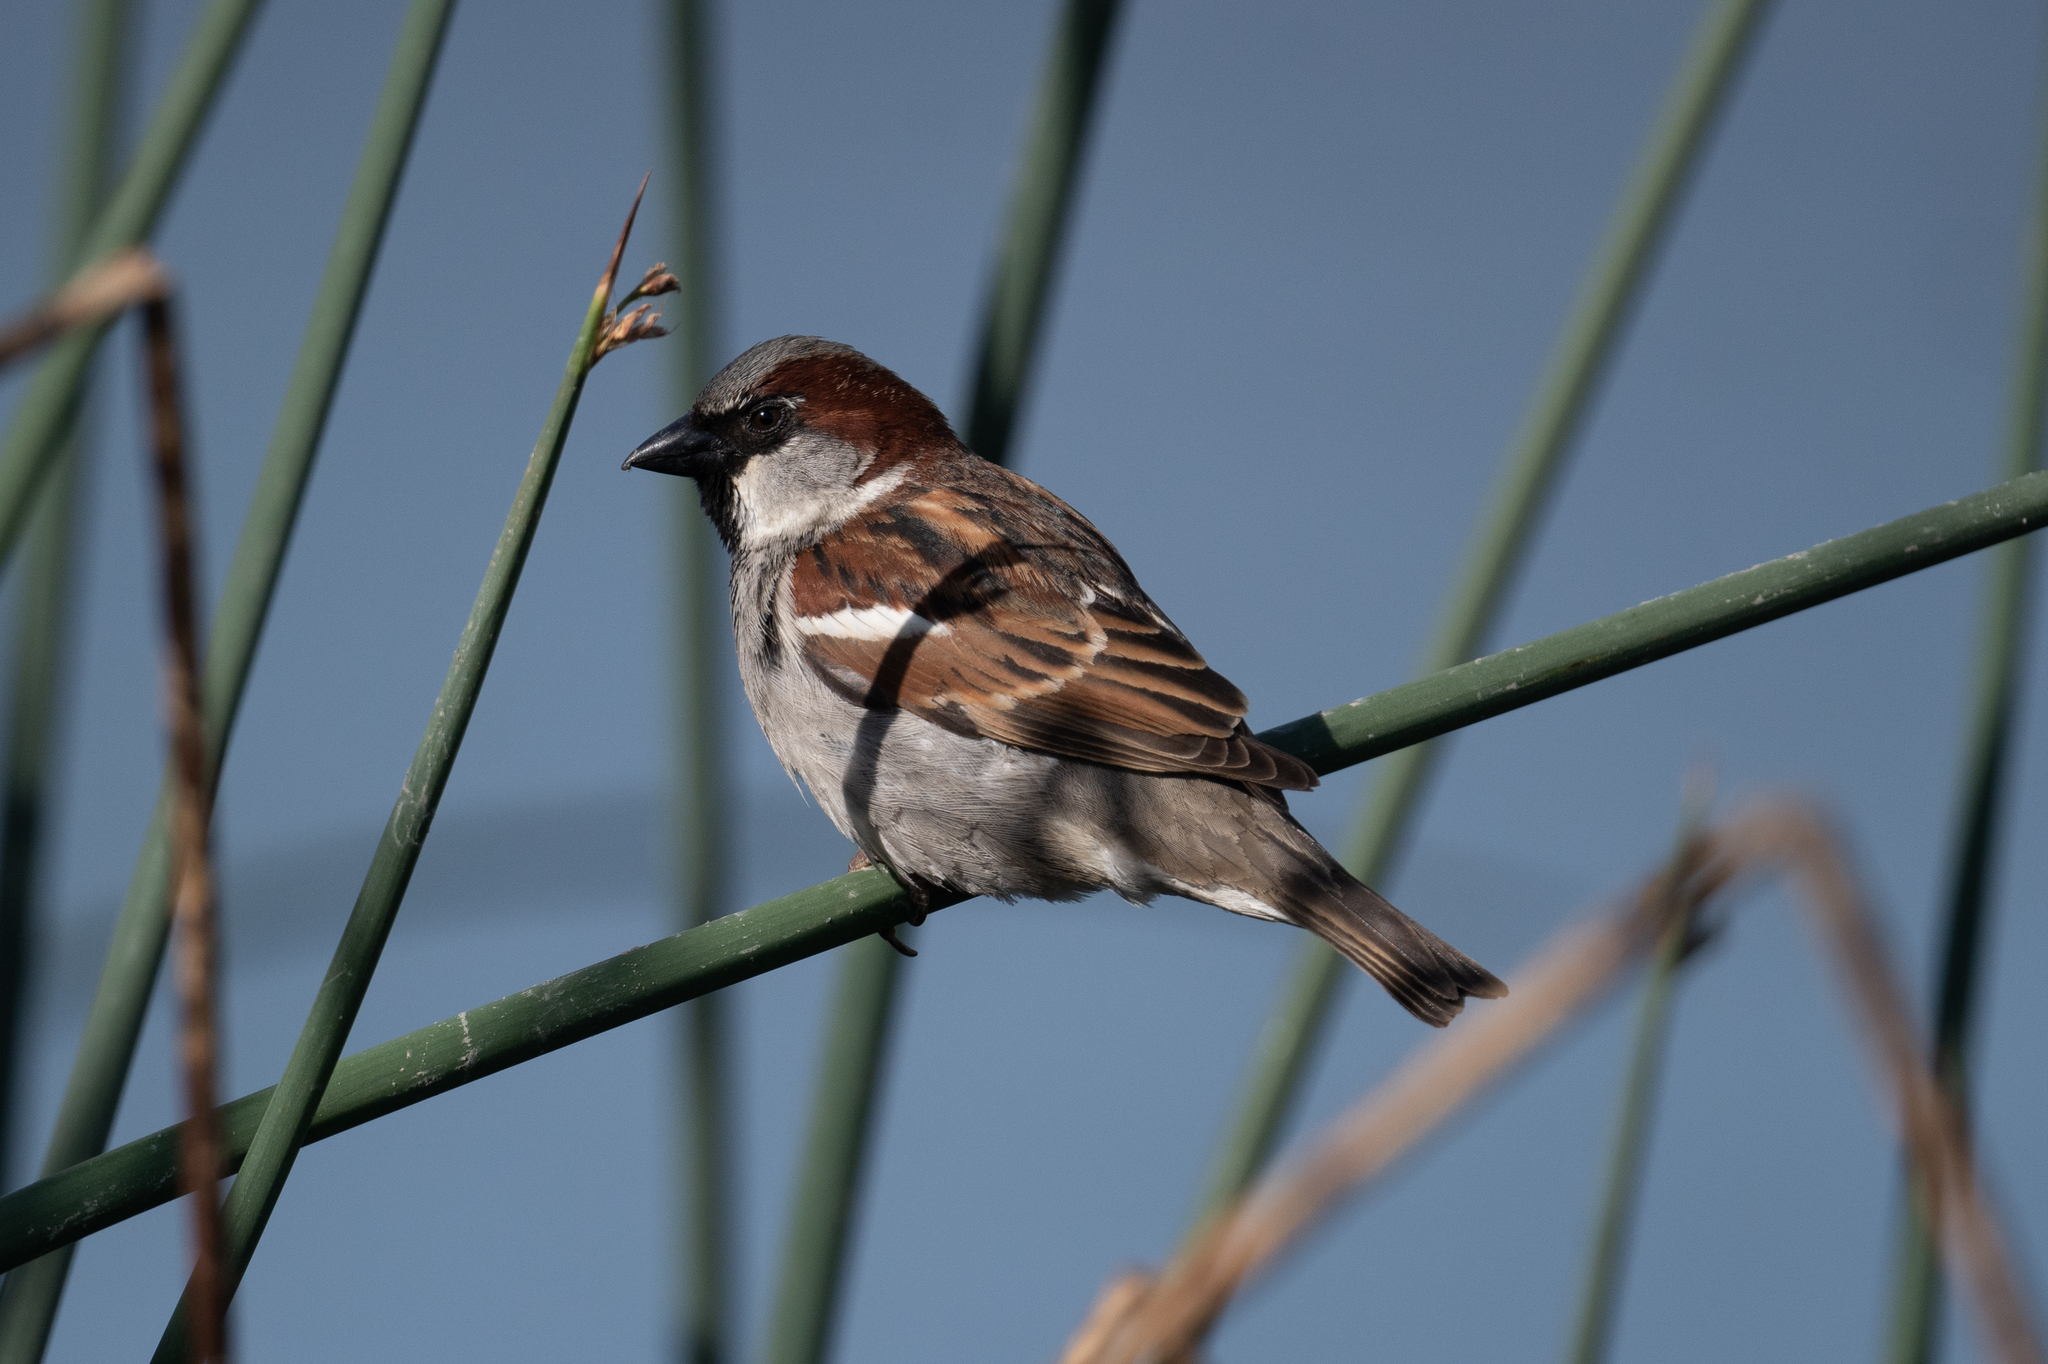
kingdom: Animalia
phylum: Chordata
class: Aves
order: Passeriformes
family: Passeridae
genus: Passer
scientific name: Passer domesticus
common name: House sparrow
